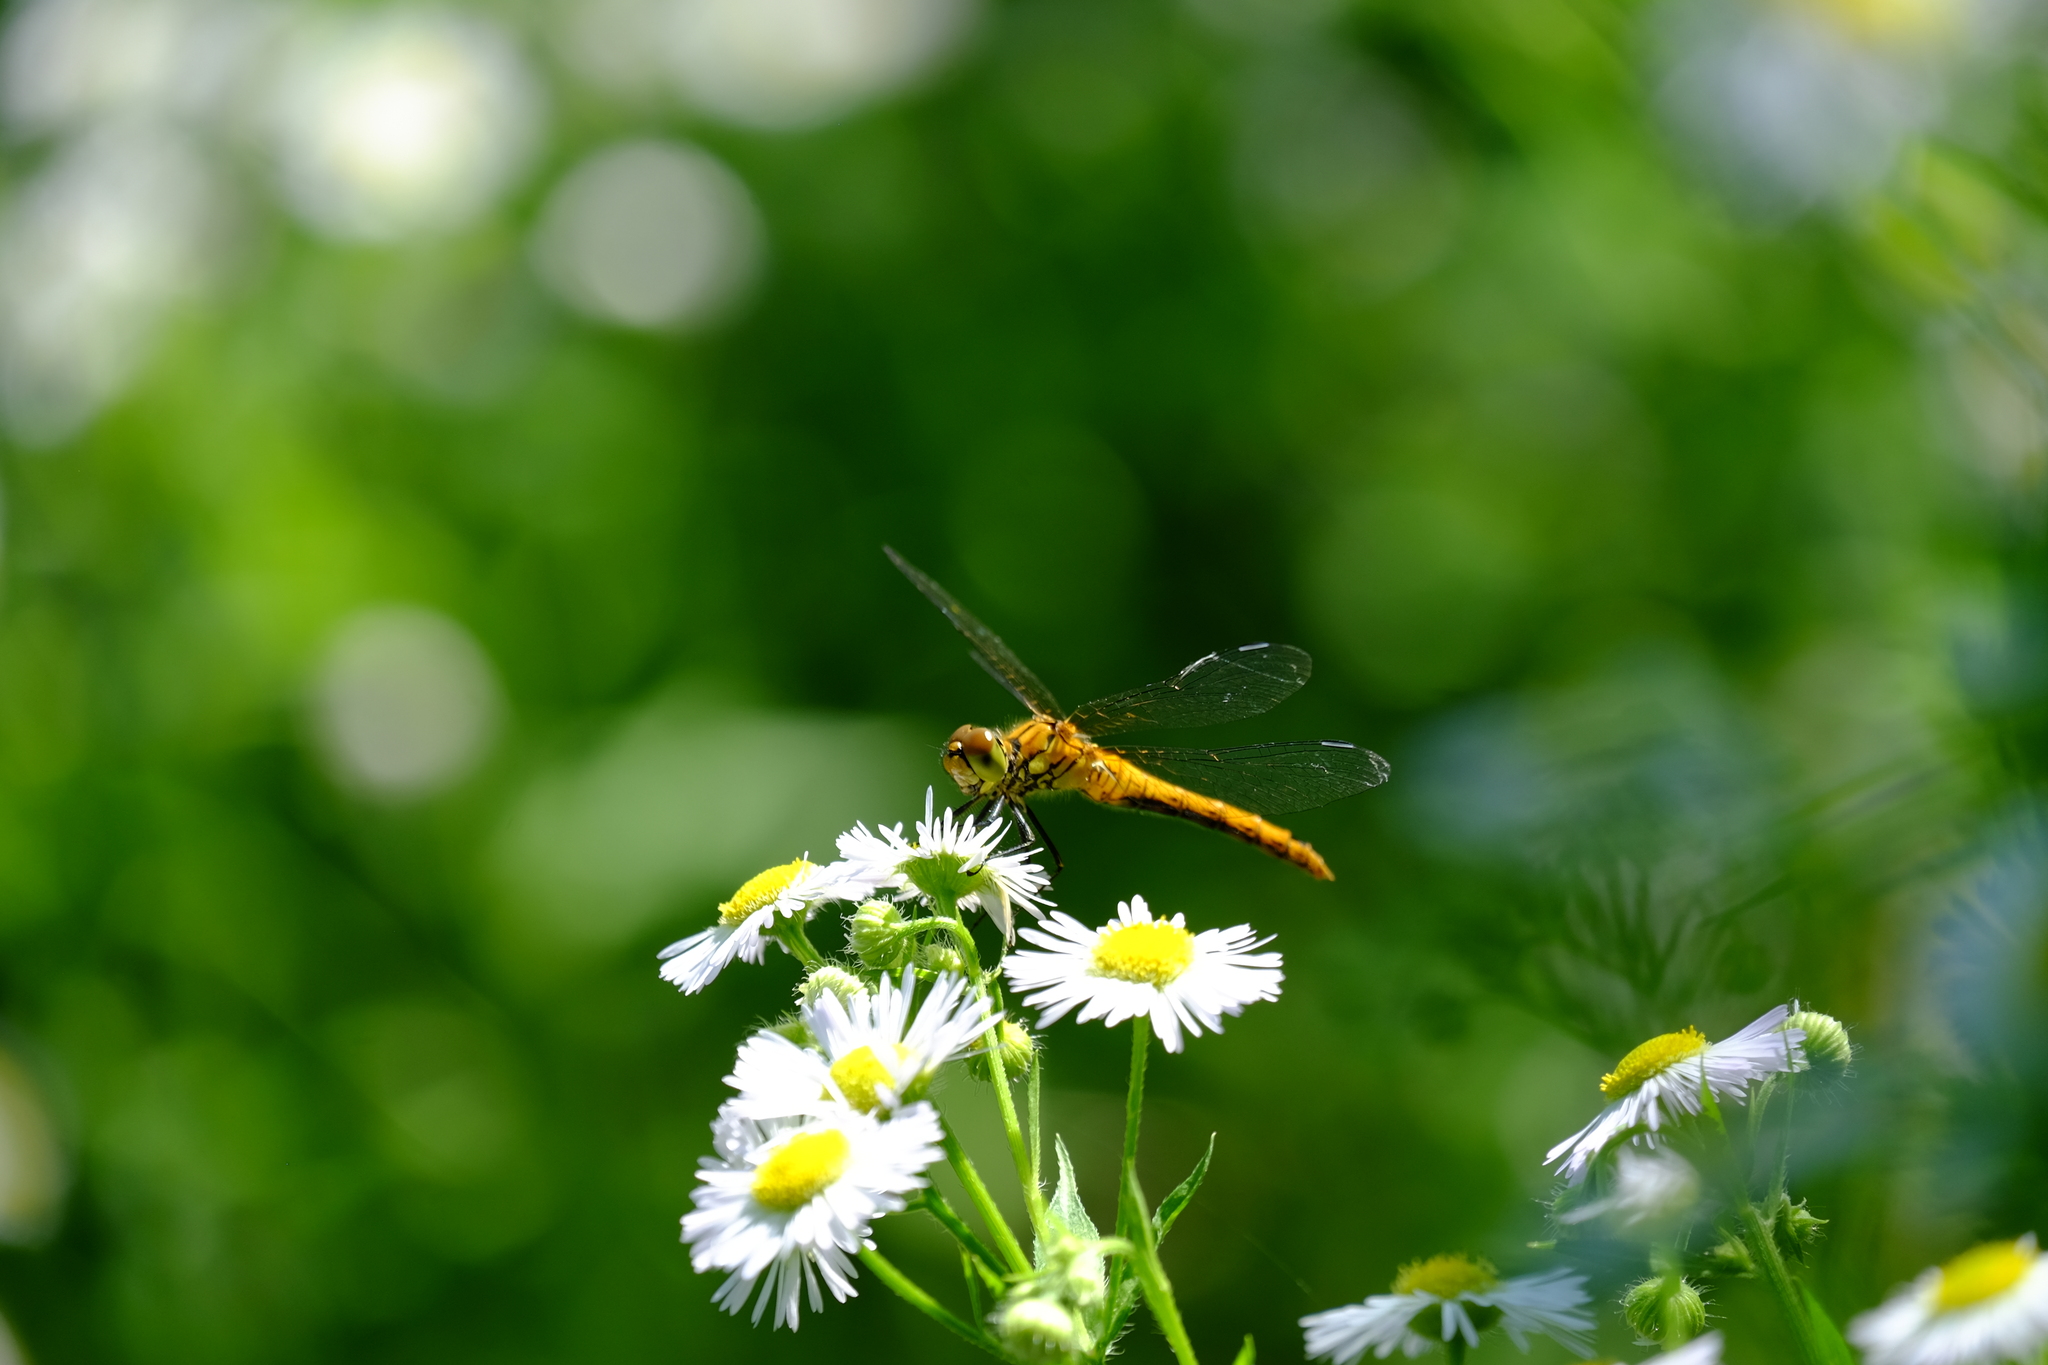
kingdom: Animalia
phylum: Arthropoda
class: Insecta
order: Odonata
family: Libellulidae
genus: Sympetrum
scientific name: Sympetrum sanguineum
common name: Ruddy darter
